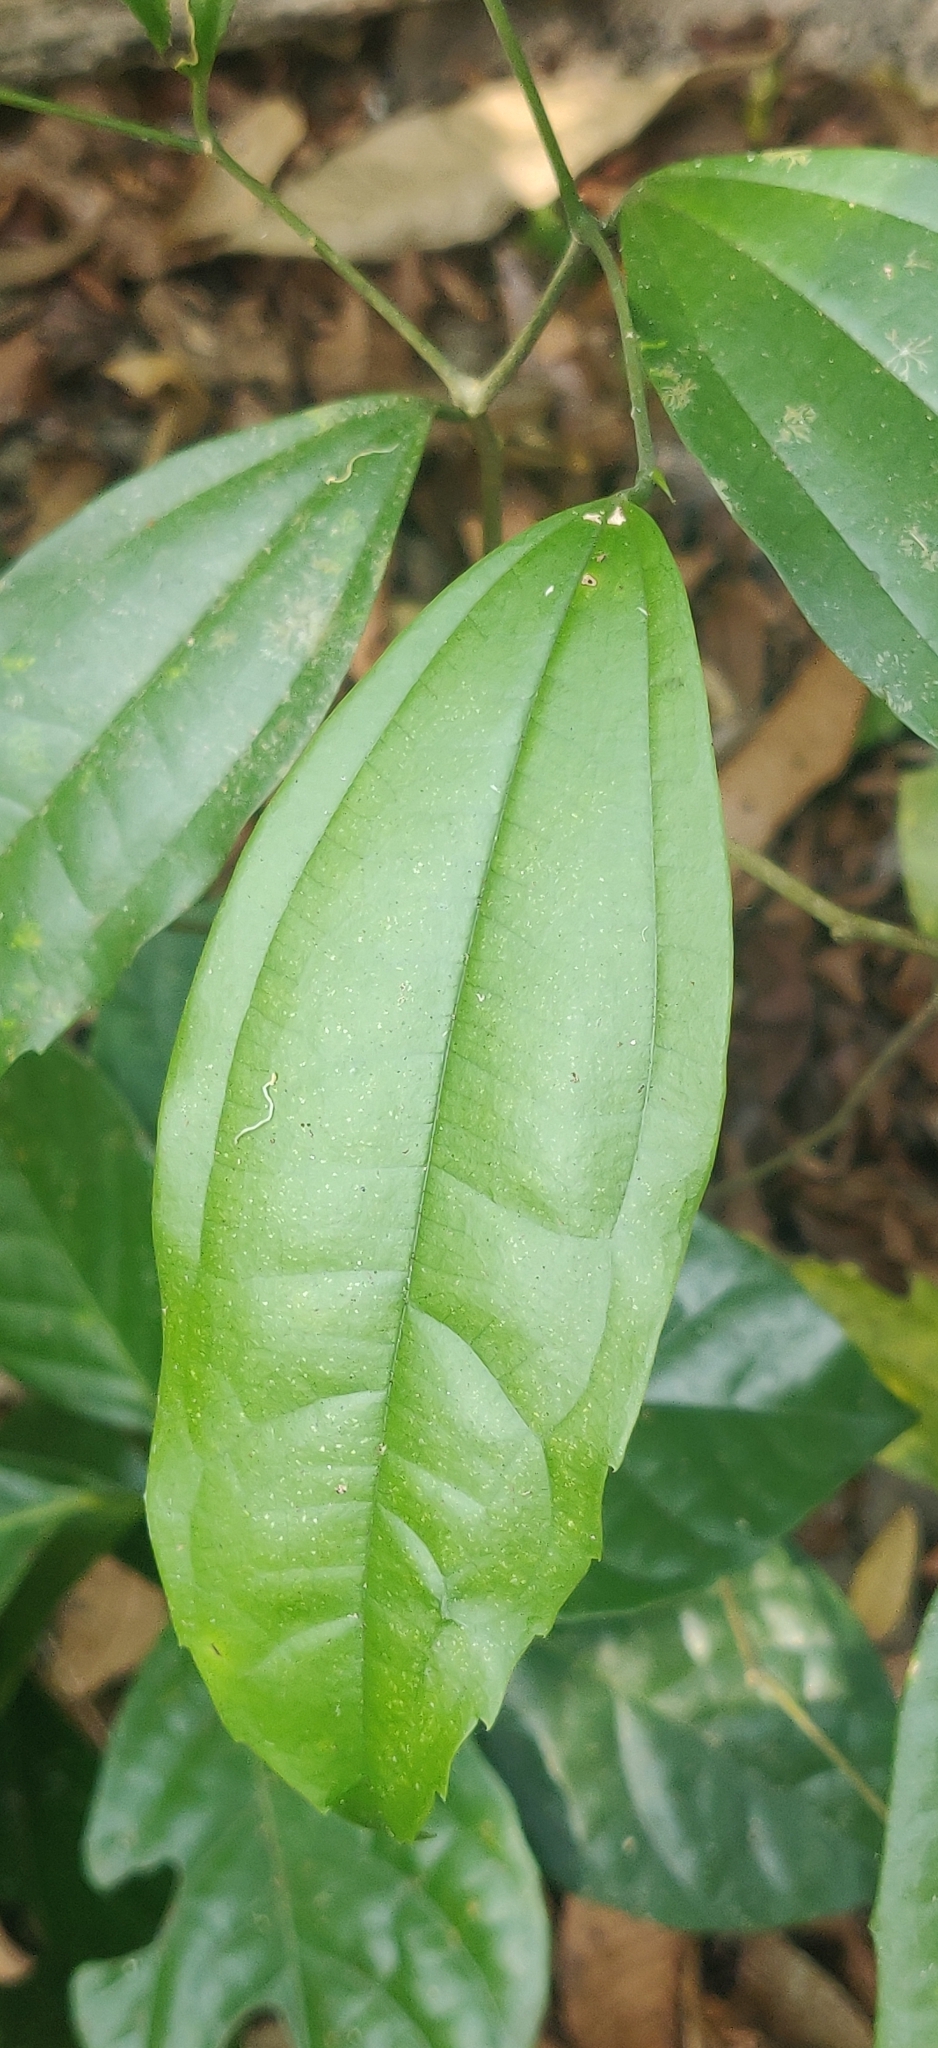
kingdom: Plantae
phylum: Tracheophyta
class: Magnoliopsida
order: Rosales
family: Cannabaceae
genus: Celtis
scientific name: Celtis philippensis
